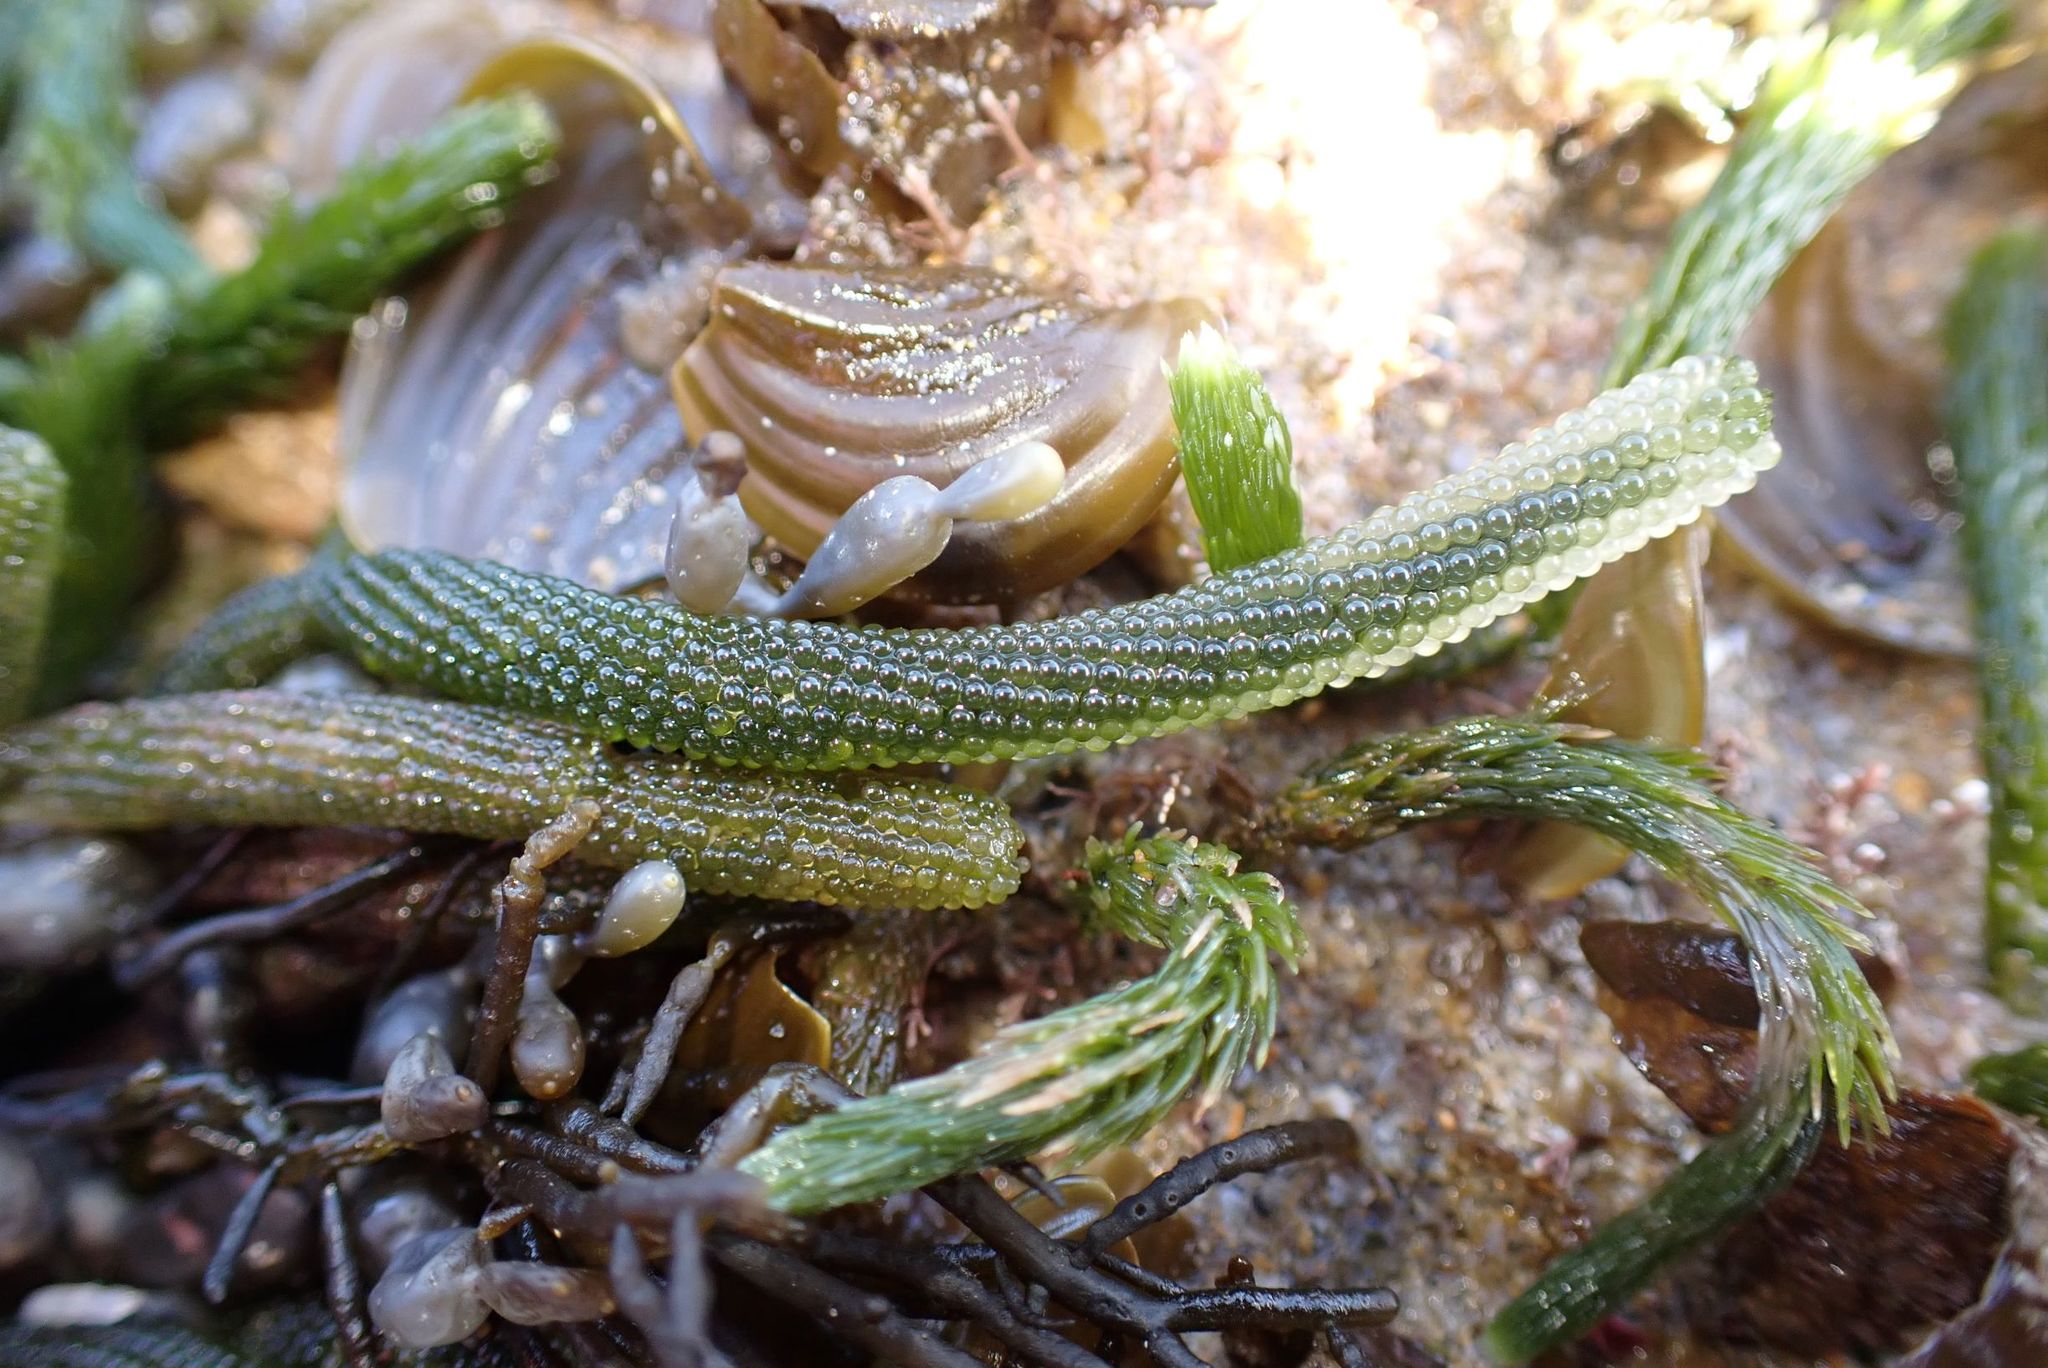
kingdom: Plantae
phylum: Chlorophyta
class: Ulvophyceae
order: Bryopsidales
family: Caulerpaceae
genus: Caulerpa
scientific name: Caulerpa simpliciuscula
